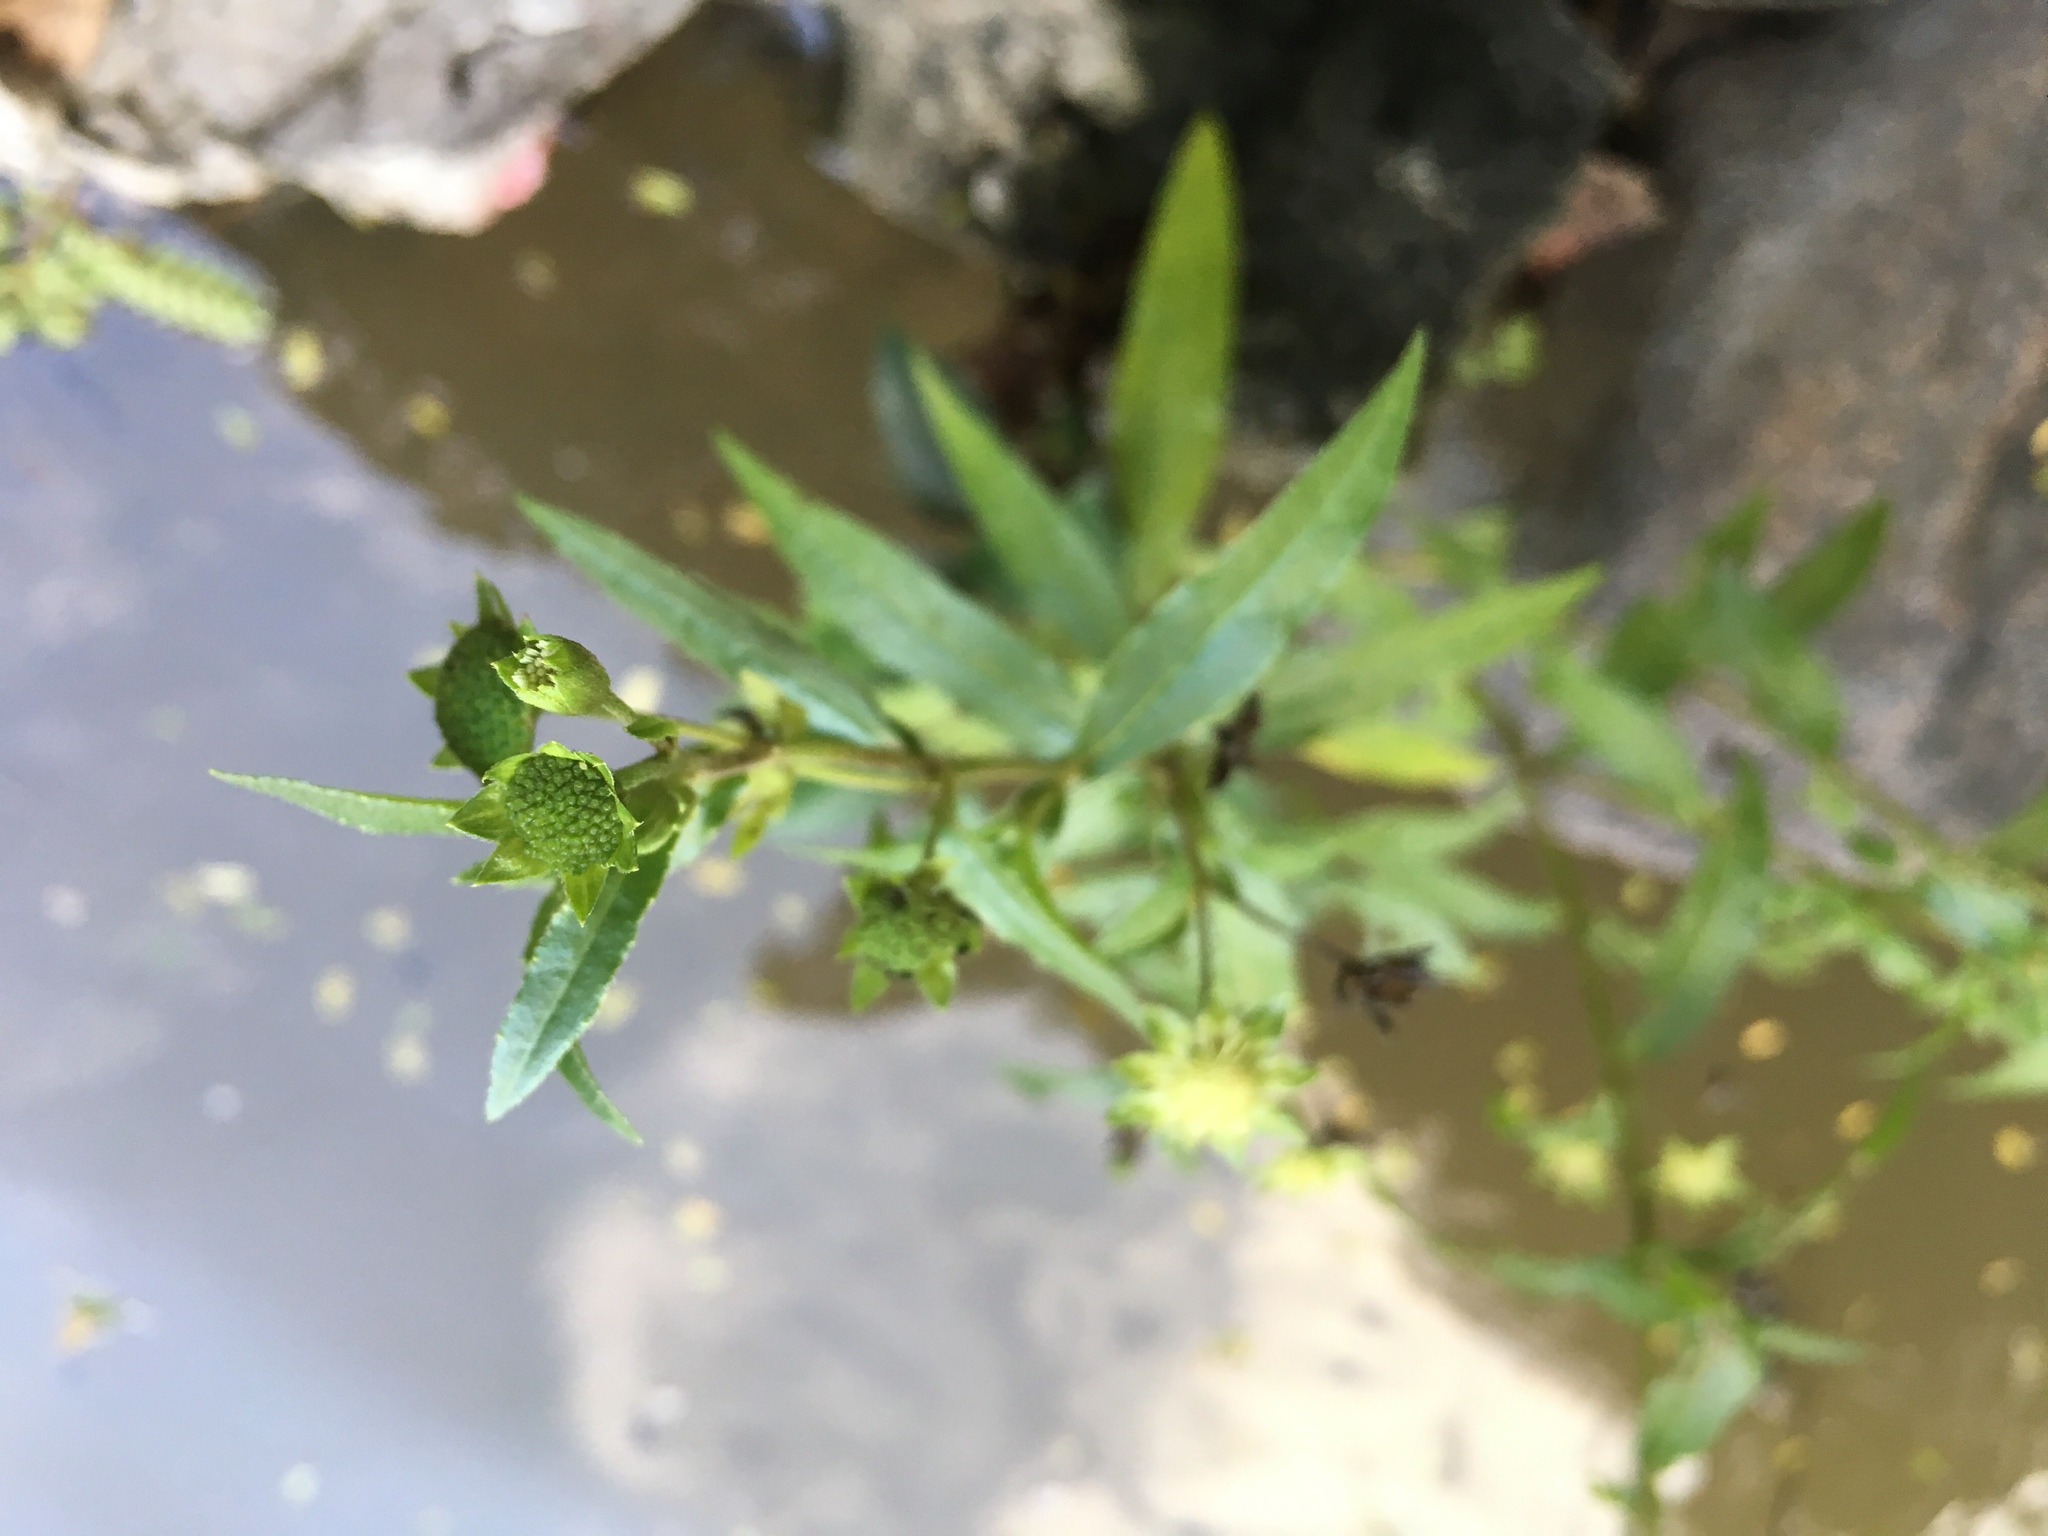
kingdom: Plantae
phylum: Tracheophyta
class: Magnoliopsida
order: Asterales
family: Asteraceae
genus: Eclipta
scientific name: Eclipta prostrata
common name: False daisy
